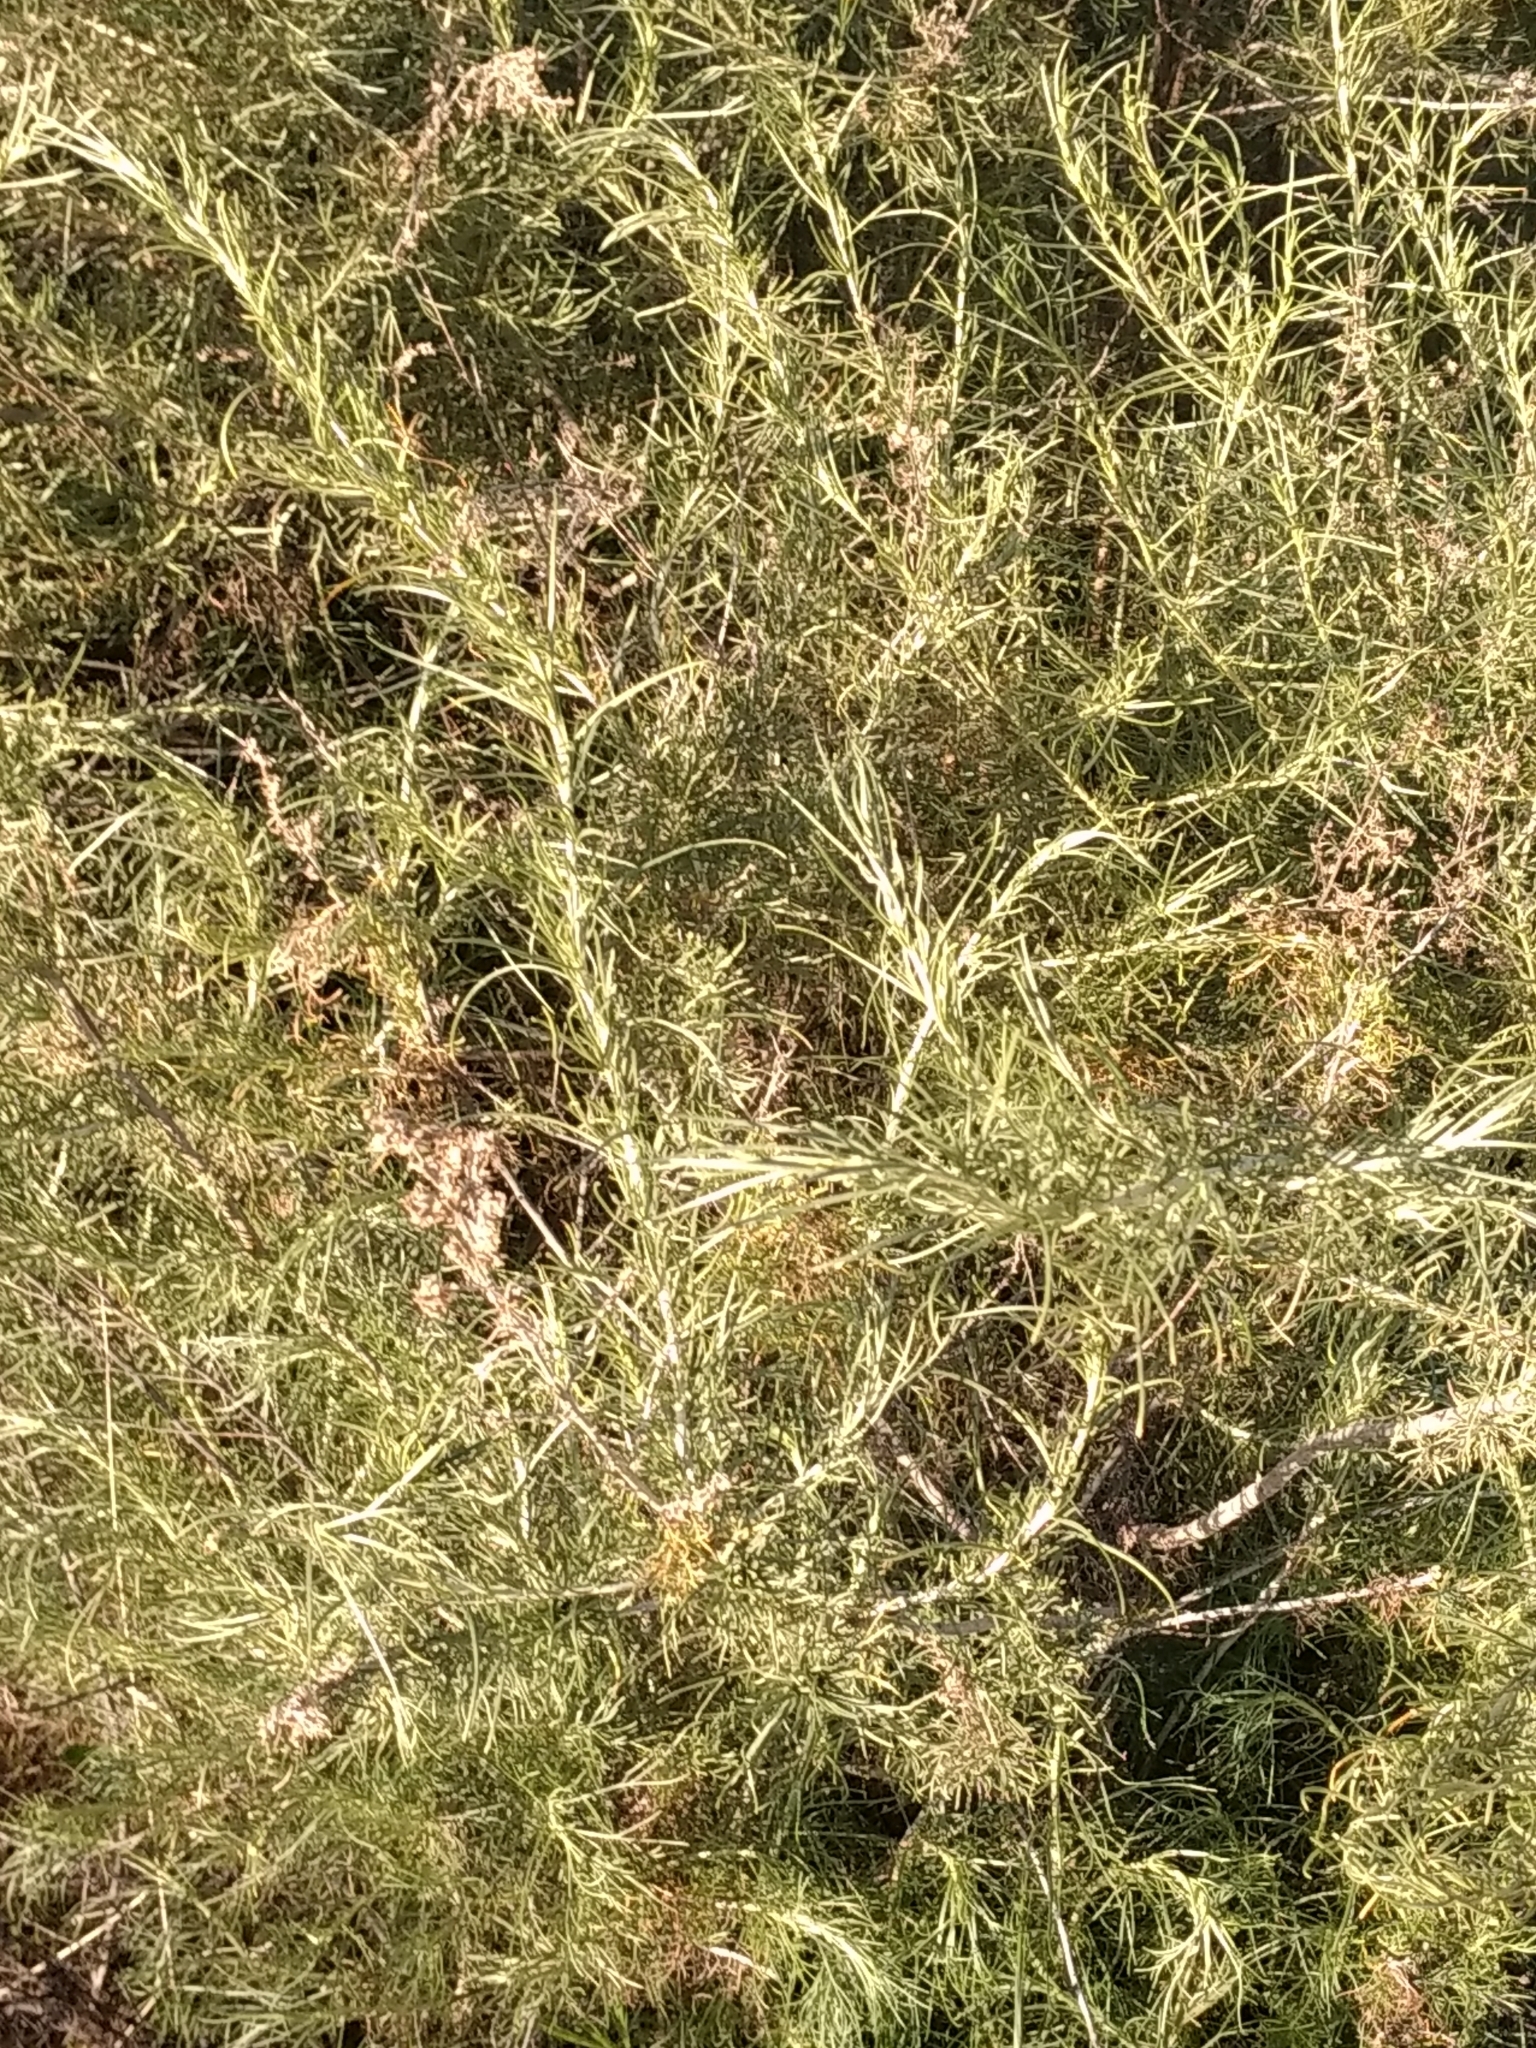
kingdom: Plantae
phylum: Tracheophyta
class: Magnoliopsida
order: Asterales
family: Asteraceae
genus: Artemisia
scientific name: Artemisia californica
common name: California sagebrush
